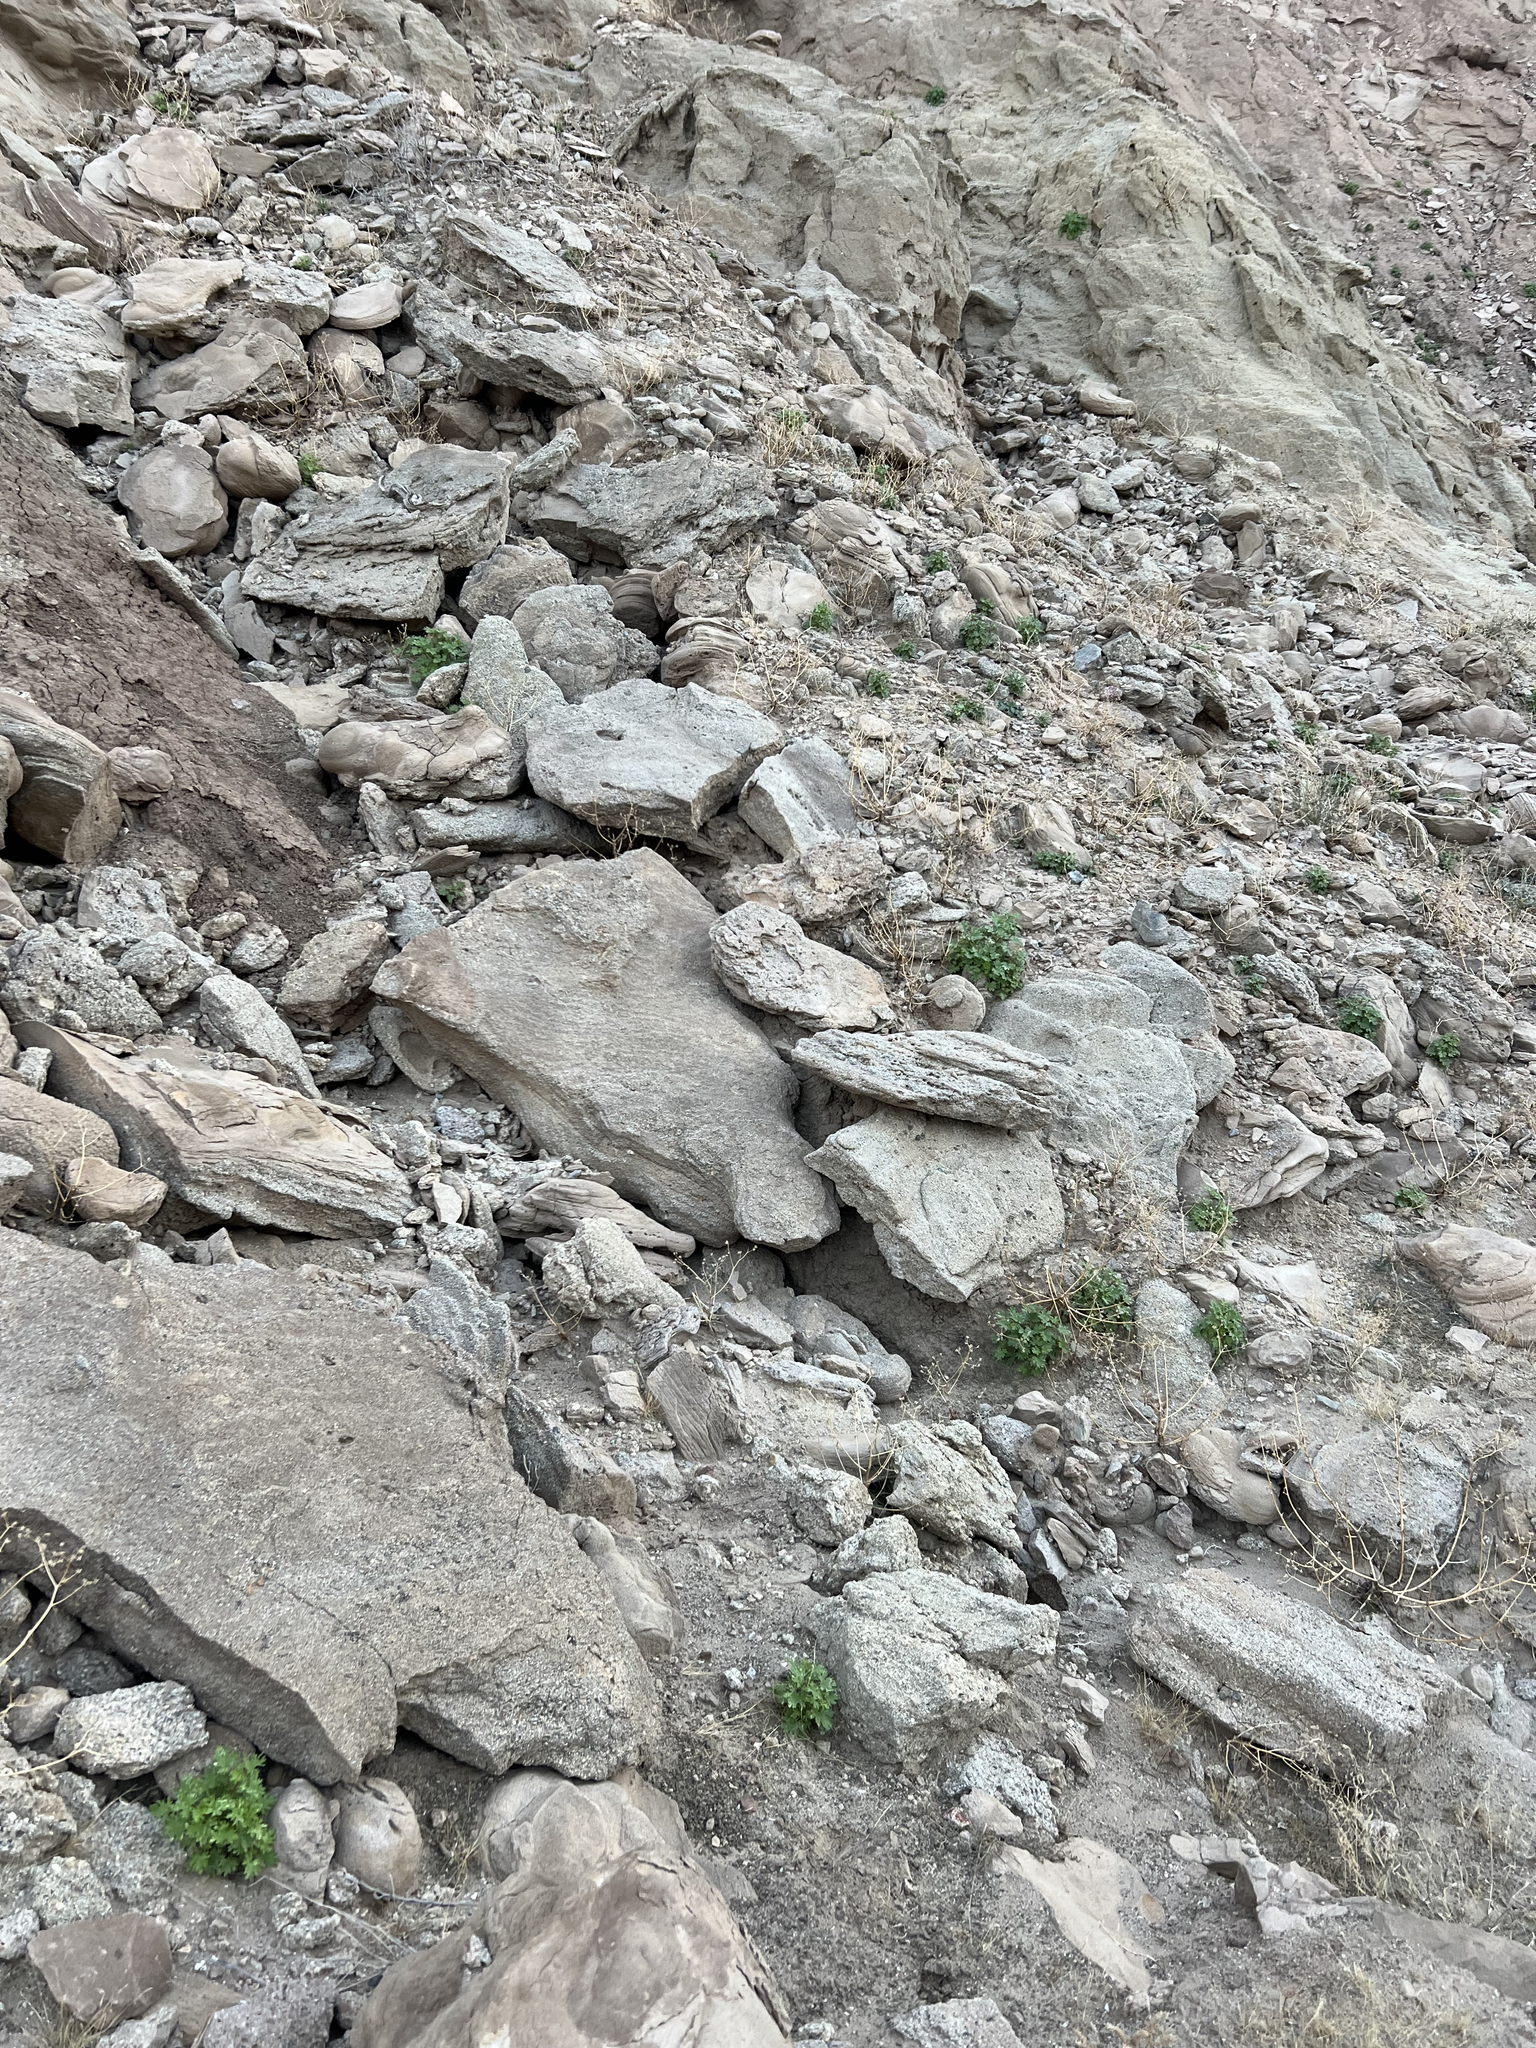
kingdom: Plantae
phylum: Tracheophyta
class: Magnoliopsida
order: Asterales
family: Asteraceae
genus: Laphamia
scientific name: Laphamia emoryi
